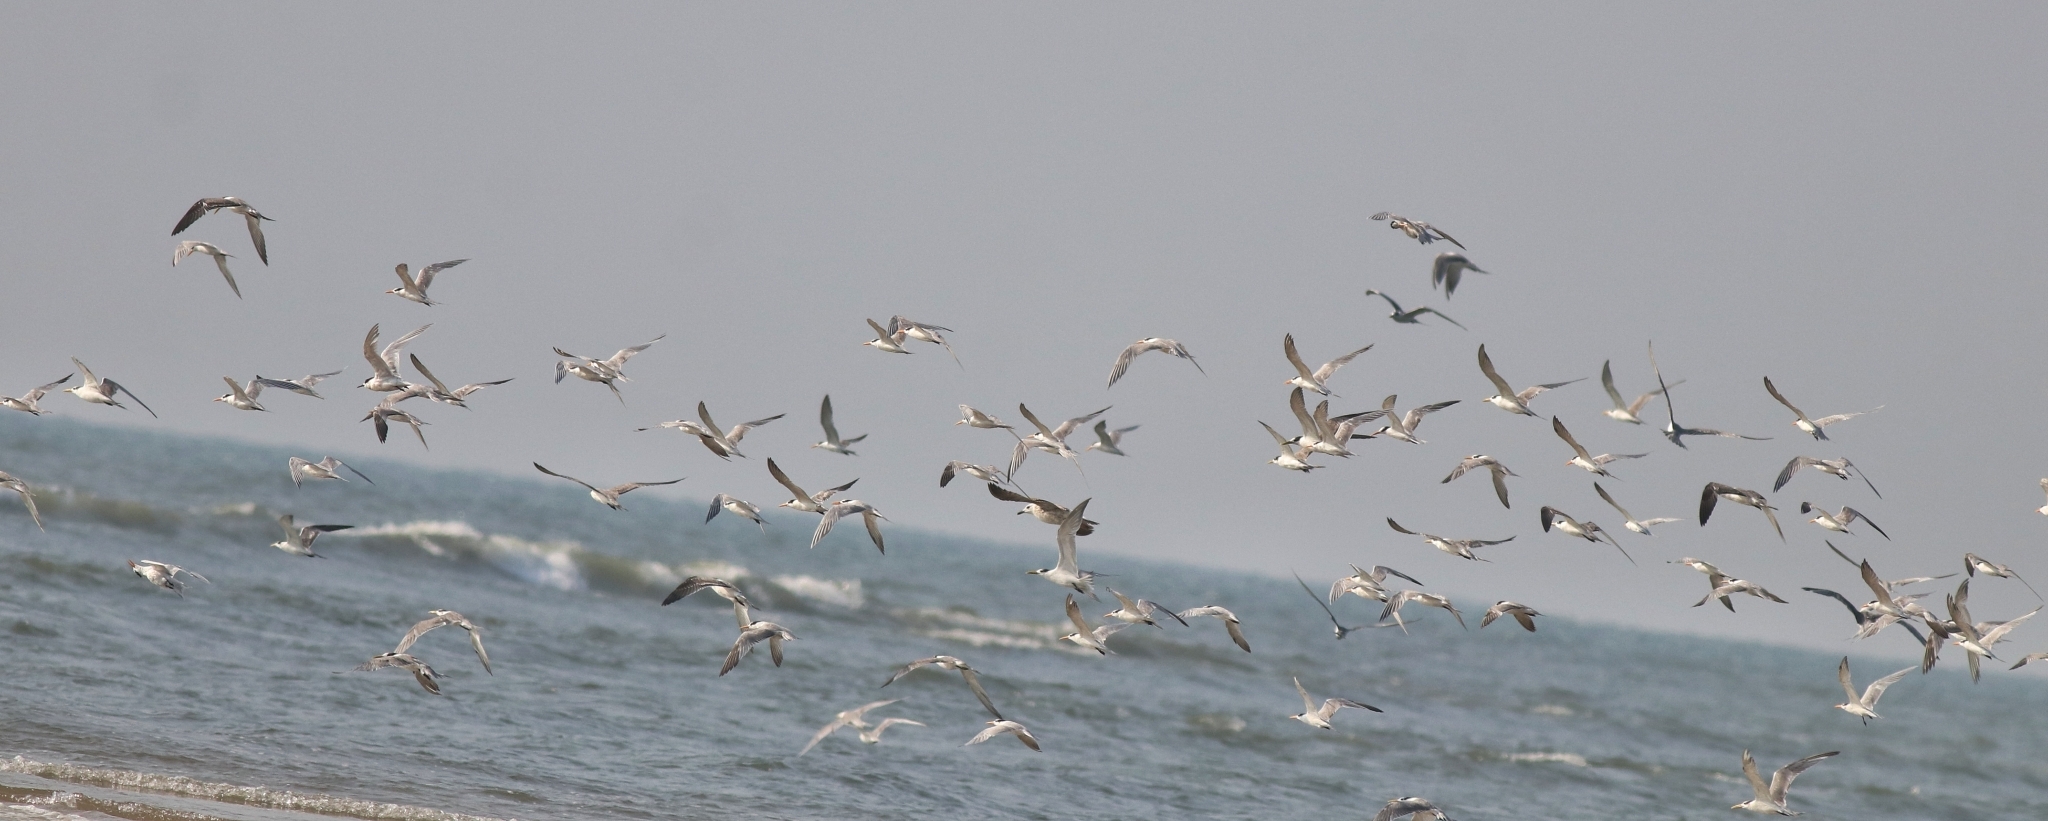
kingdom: Animalia
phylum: Chordata
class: Aves
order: Charadriiformes
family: Laridae
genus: Thalasseus
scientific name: Thalasseus bengalensis
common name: Lesser crested tern
